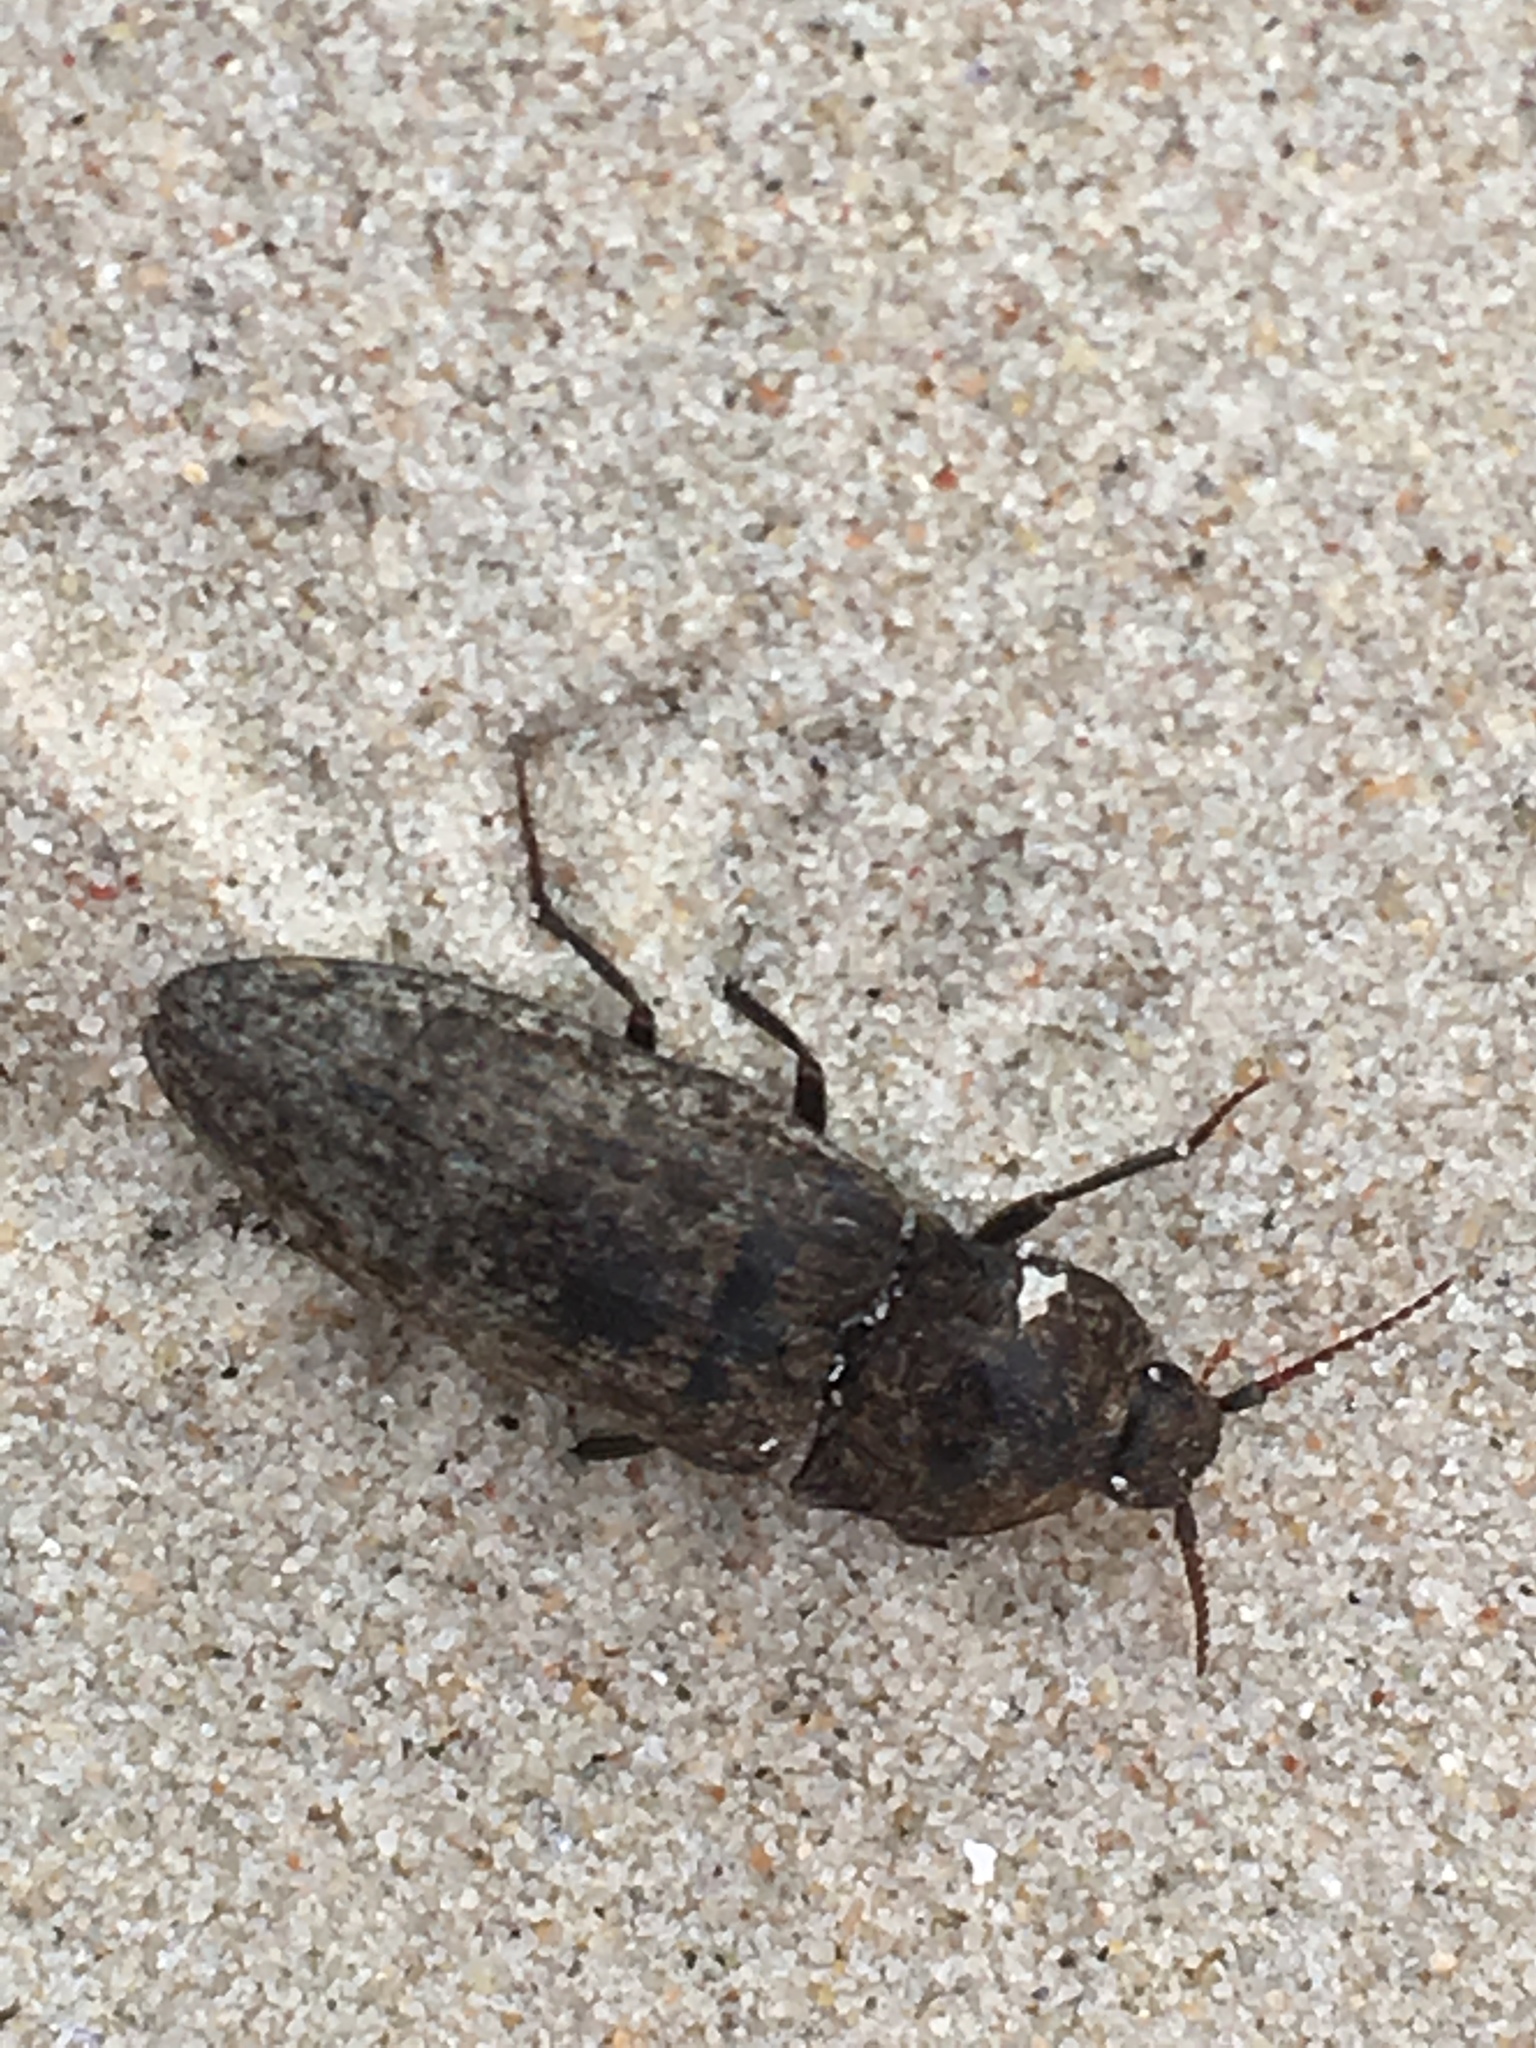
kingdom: Animalia
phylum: Arthropoda
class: Insecta
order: Coleoptera
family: Elateridae
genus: Agrypnus
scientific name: Agrypnus murinus
